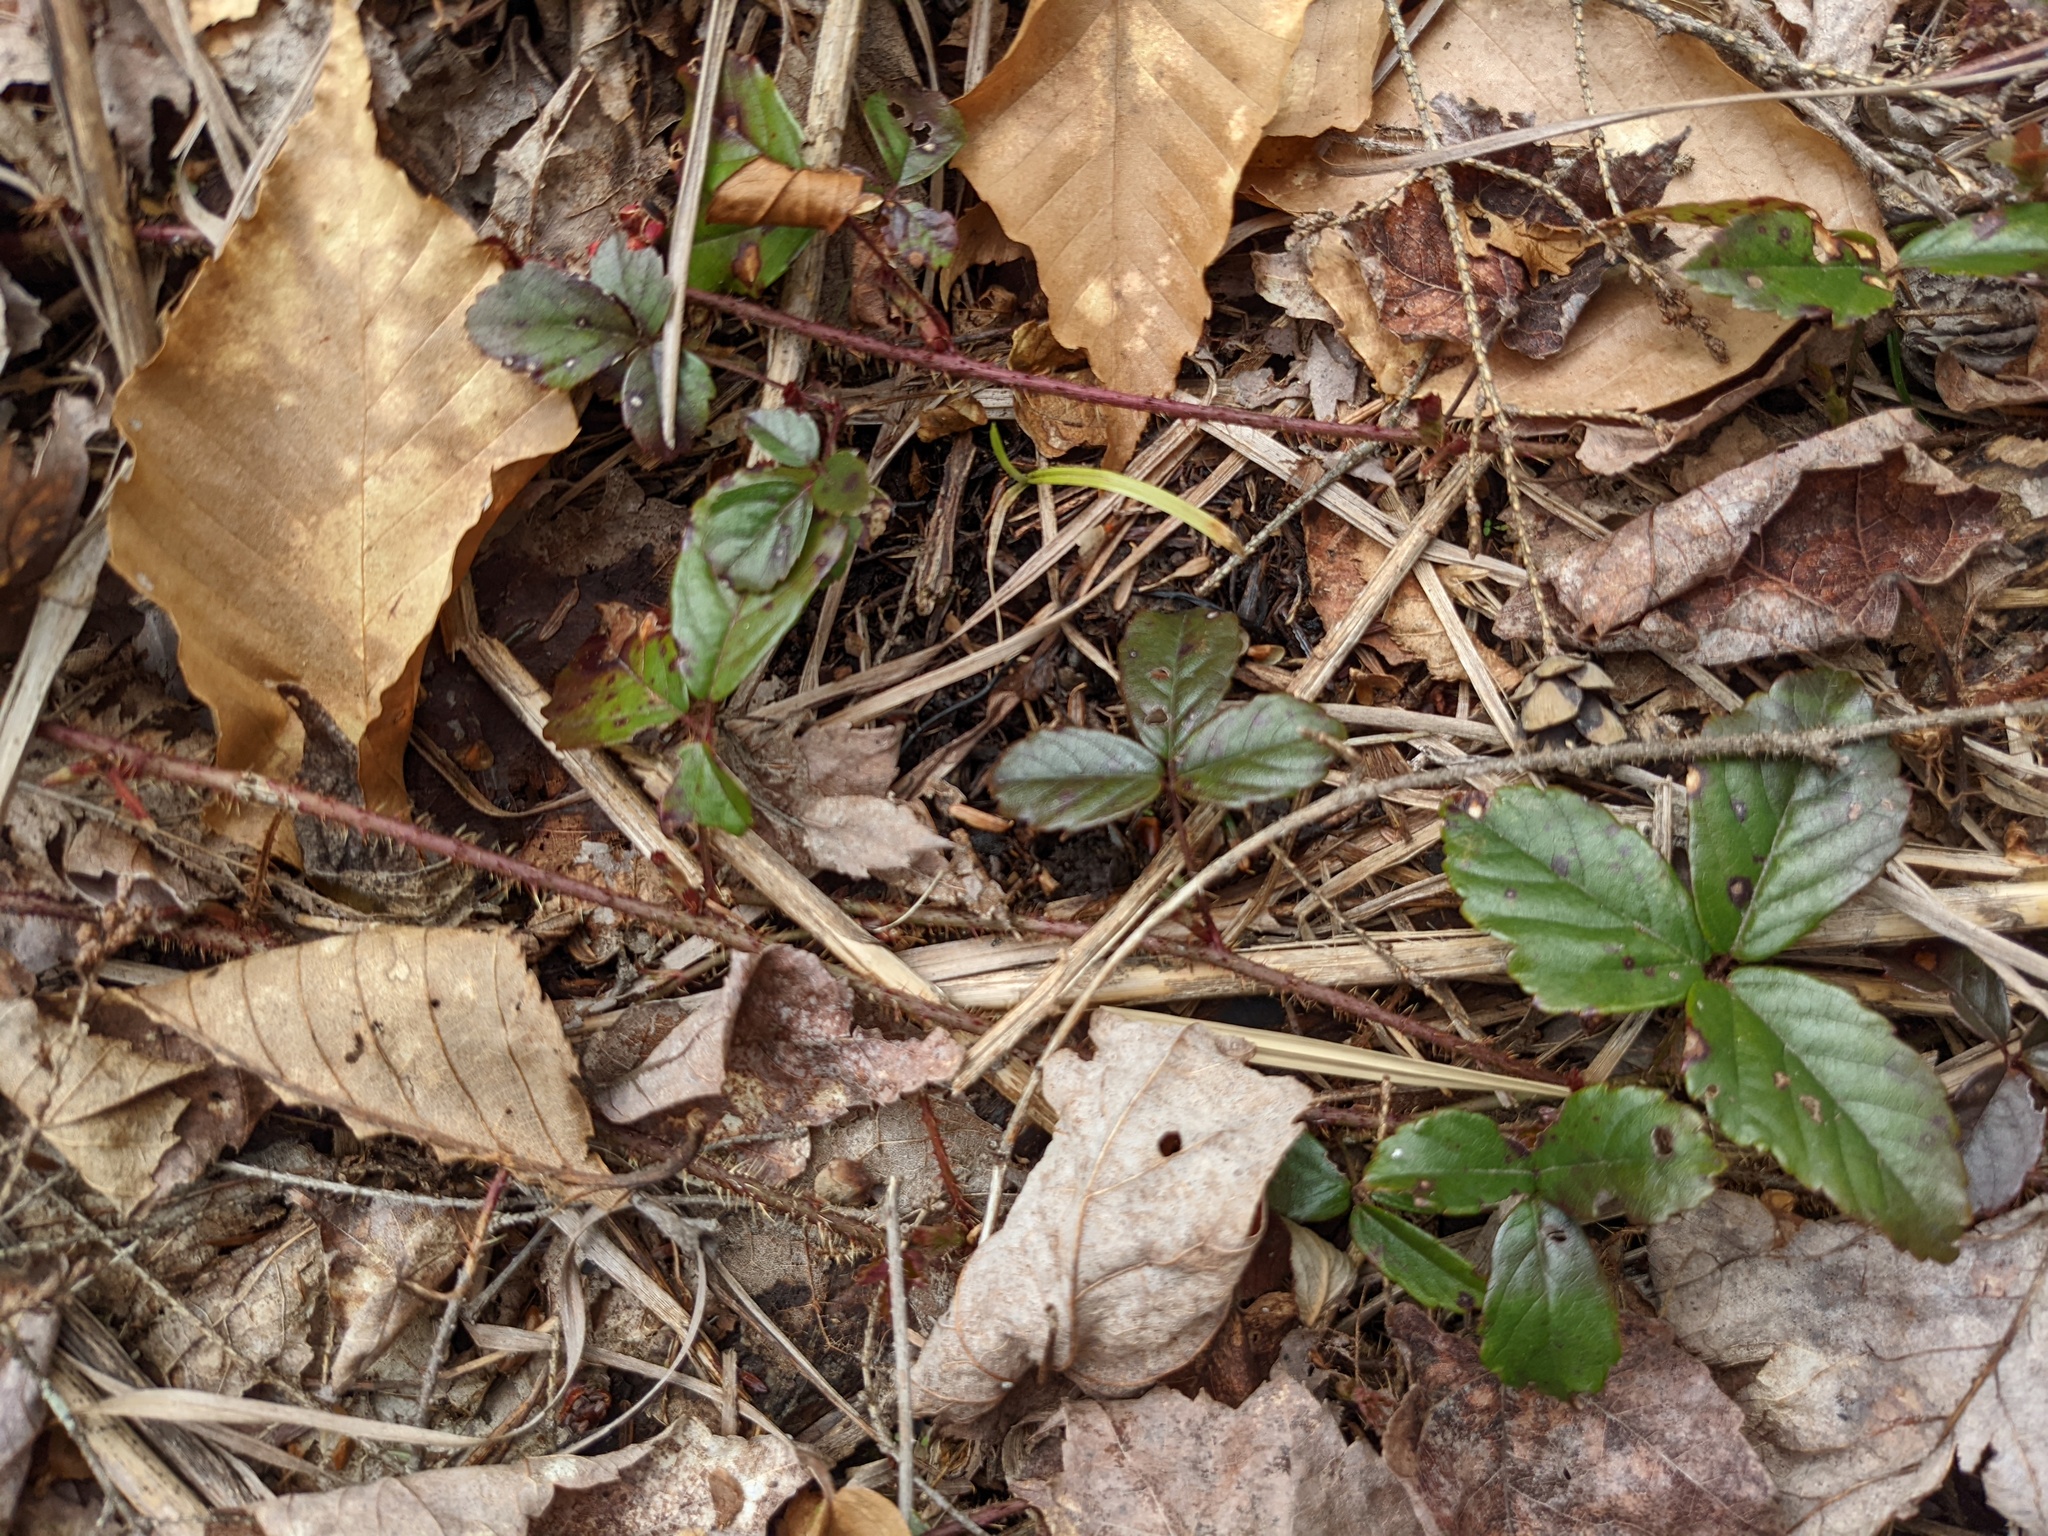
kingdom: Plantae
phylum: Tracheophyta
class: Magnoliopsida
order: Rosales
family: Rosaceae
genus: Rubus
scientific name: Rubus hispidus
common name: Running blackberry
